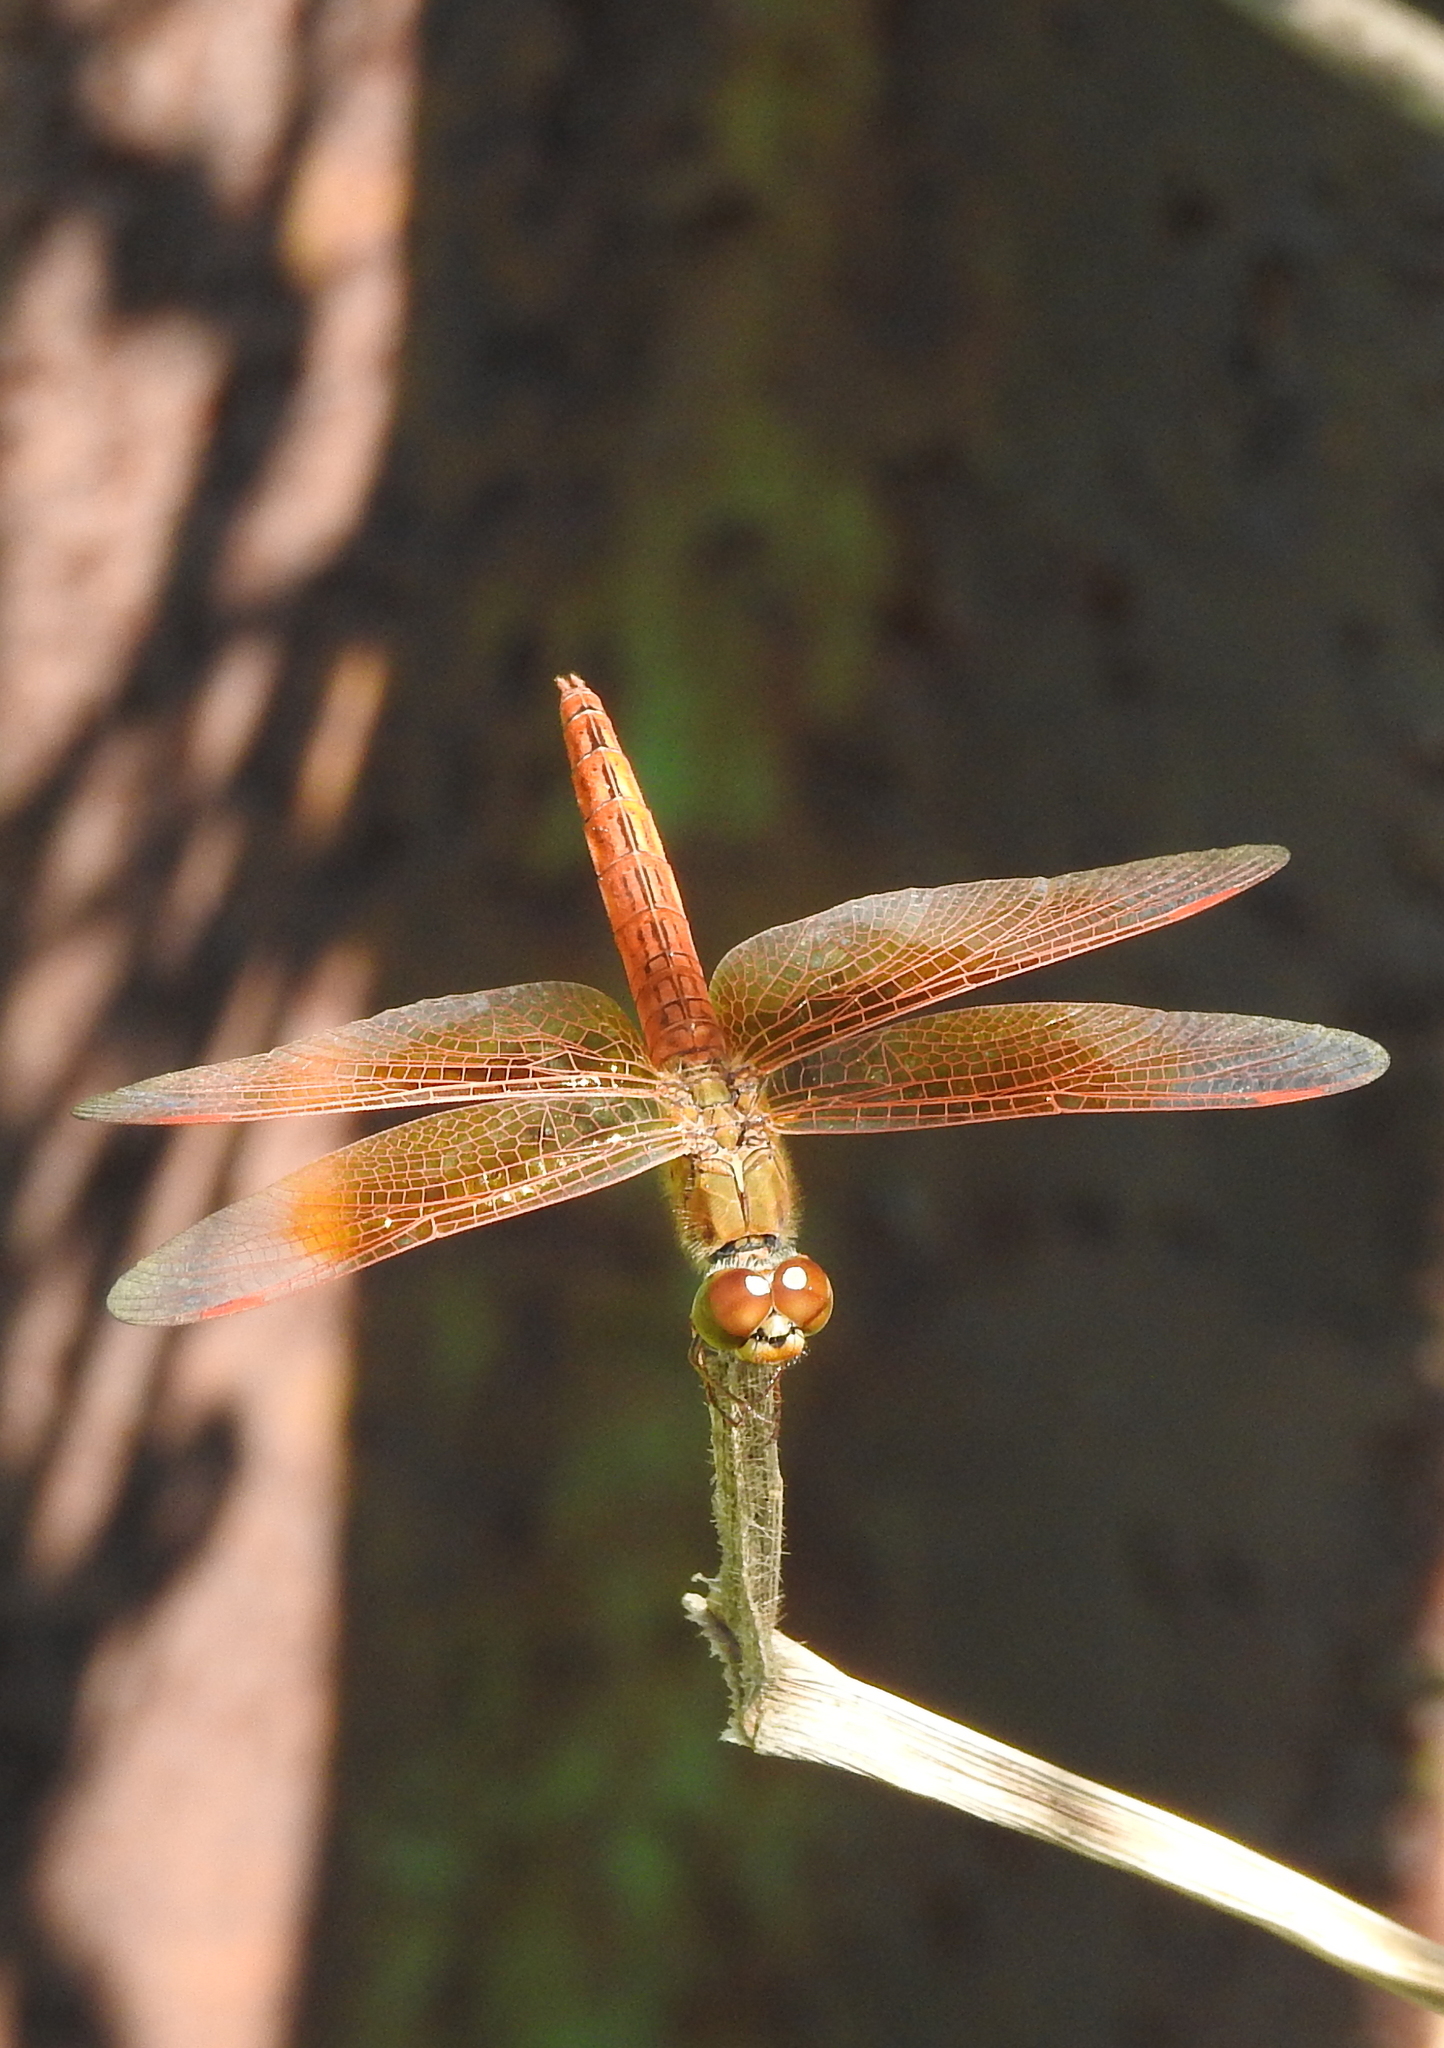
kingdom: Animalia
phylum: Arthropoda
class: Insecta
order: Odonata
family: Libellulidae
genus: Brachythemis
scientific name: Brachythemis contaminata
